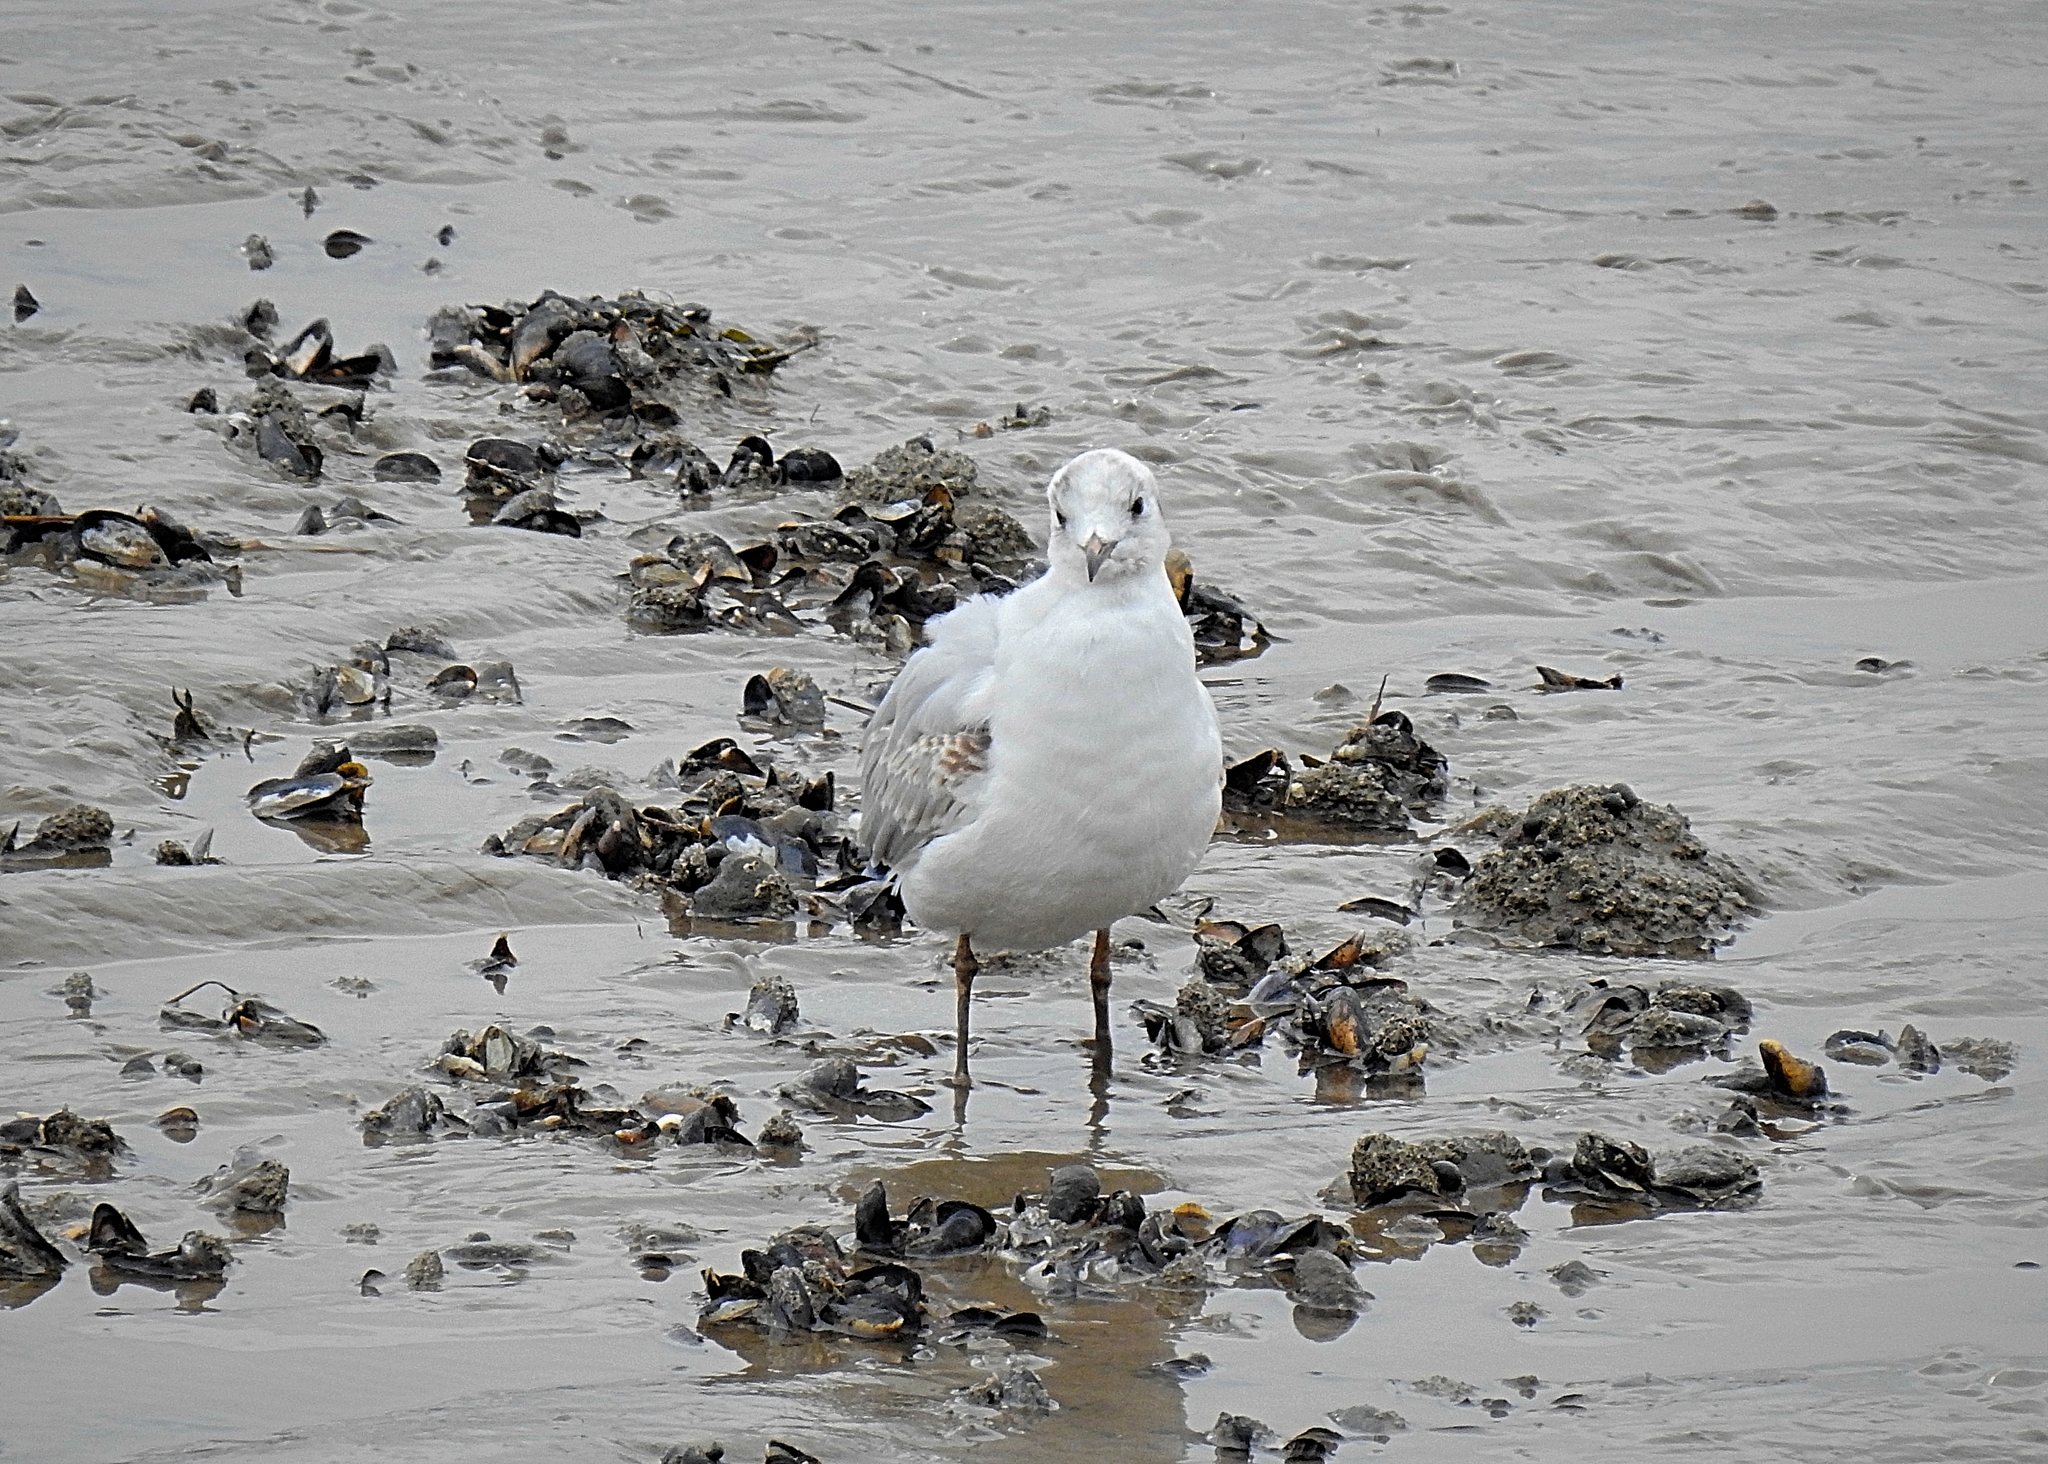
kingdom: Animalia
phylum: Chordata
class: Aves
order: Charadriiformes
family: Laridae
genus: Larus
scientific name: Larus argentatus
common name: Herring gull
